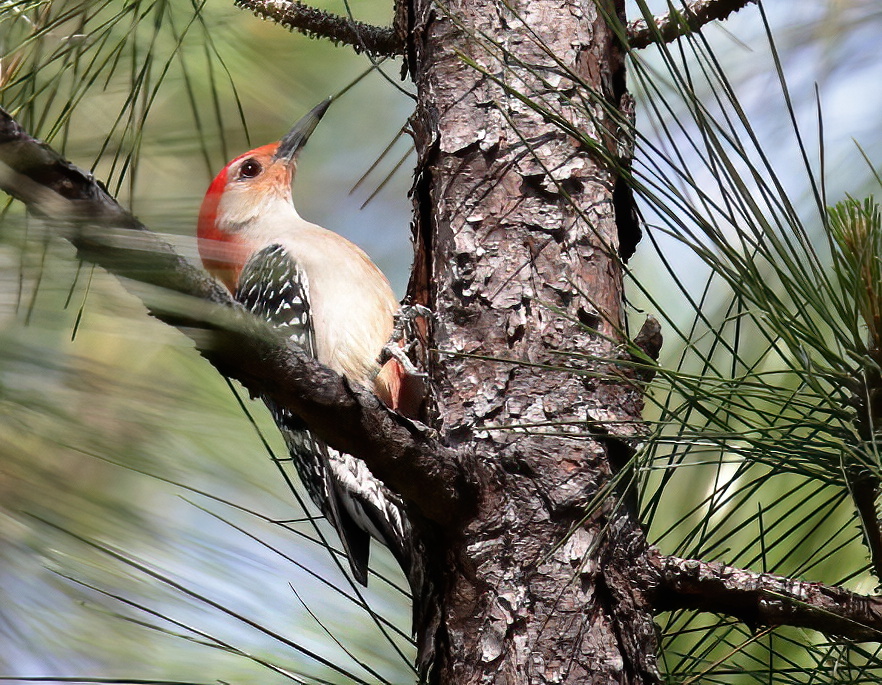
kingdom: Animalia
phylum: Chordata
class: Aves
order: Piciformes
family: Picidae
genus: Melanerpes
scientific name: Melanerpes carolinus
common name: Red-bellied woodpecker
